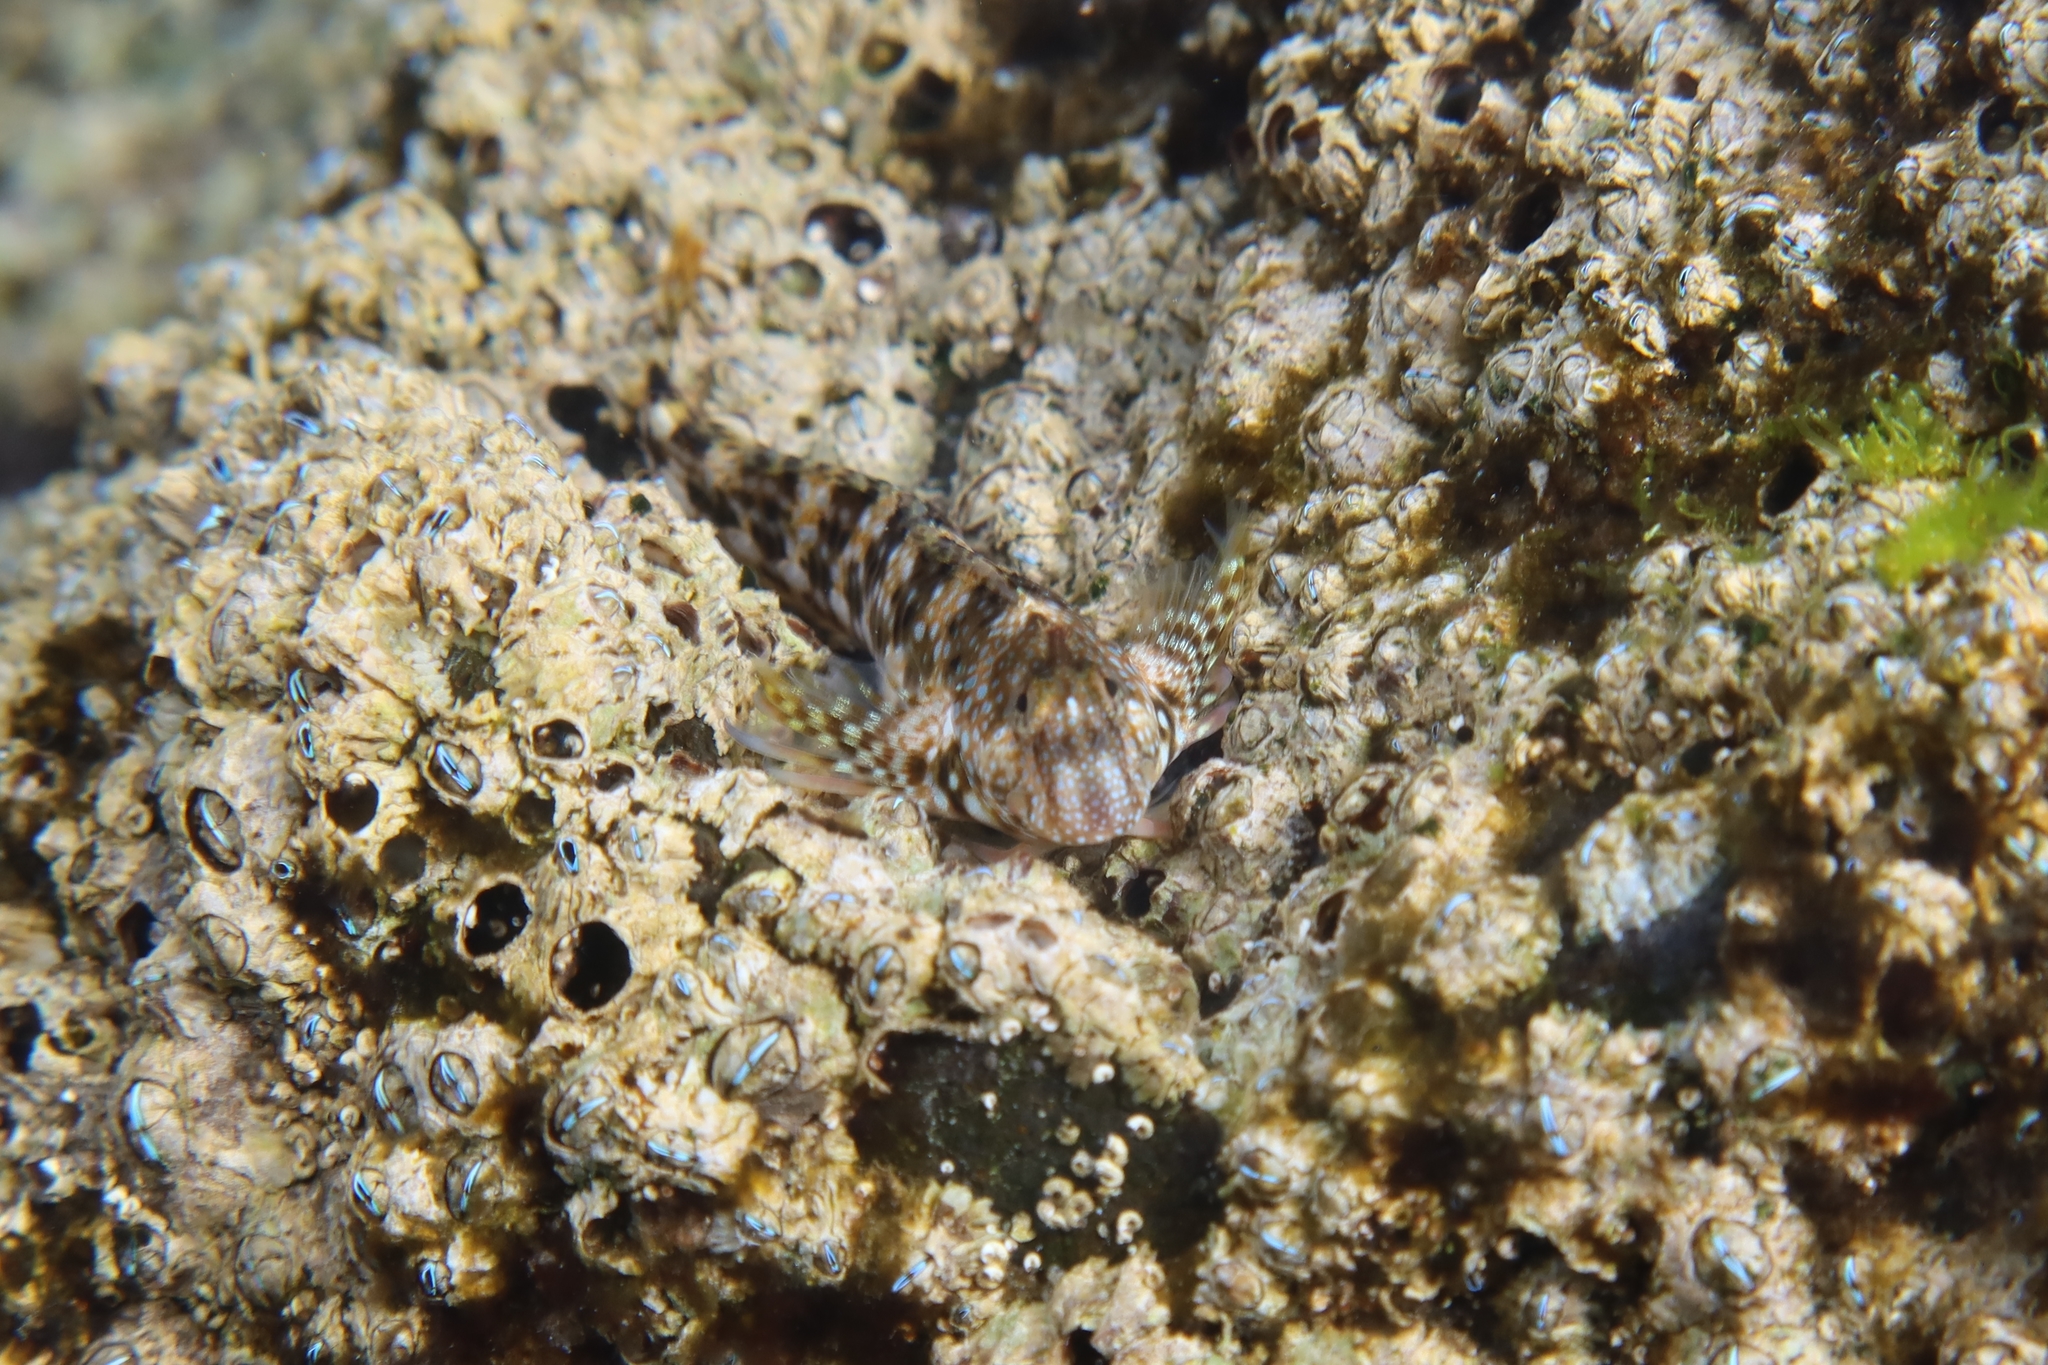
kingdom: Animalia
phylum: Chordata
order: Perciformes
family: Blenniidae
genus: Coryphoblennius
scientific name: Coryphoblennius galerita
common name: Montagu's blenny
